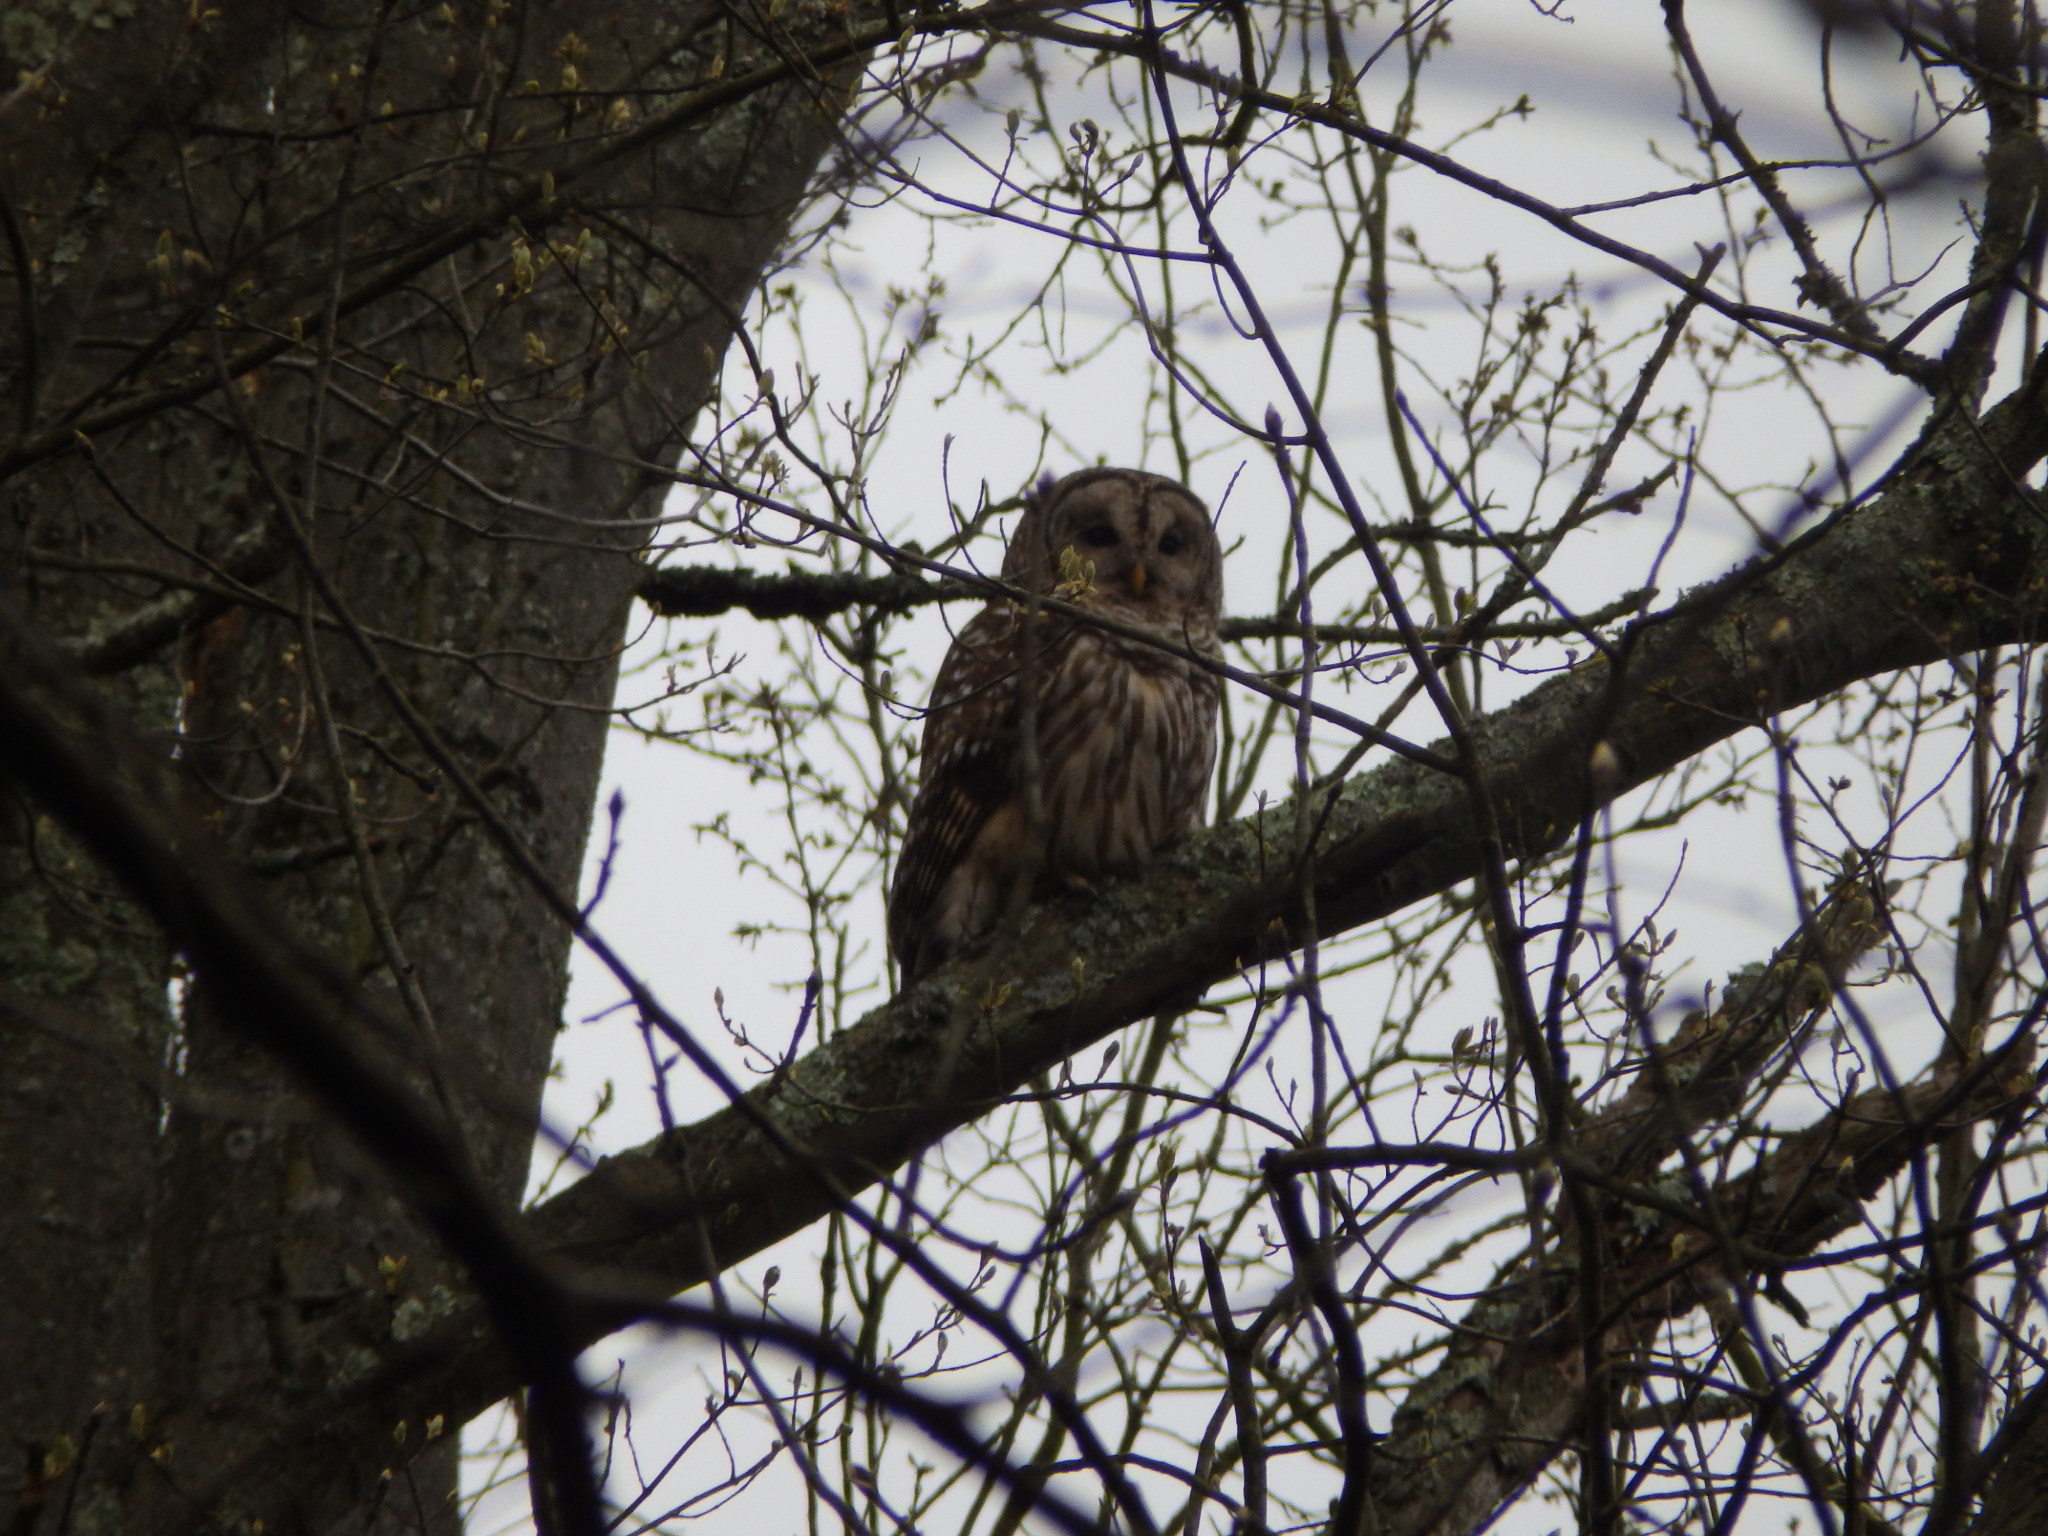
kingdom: Animalia
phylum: Chordata
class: Aves
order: Strigiformes
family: Strigidae
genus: Strix
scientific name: Strix varia
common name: Barred owl
